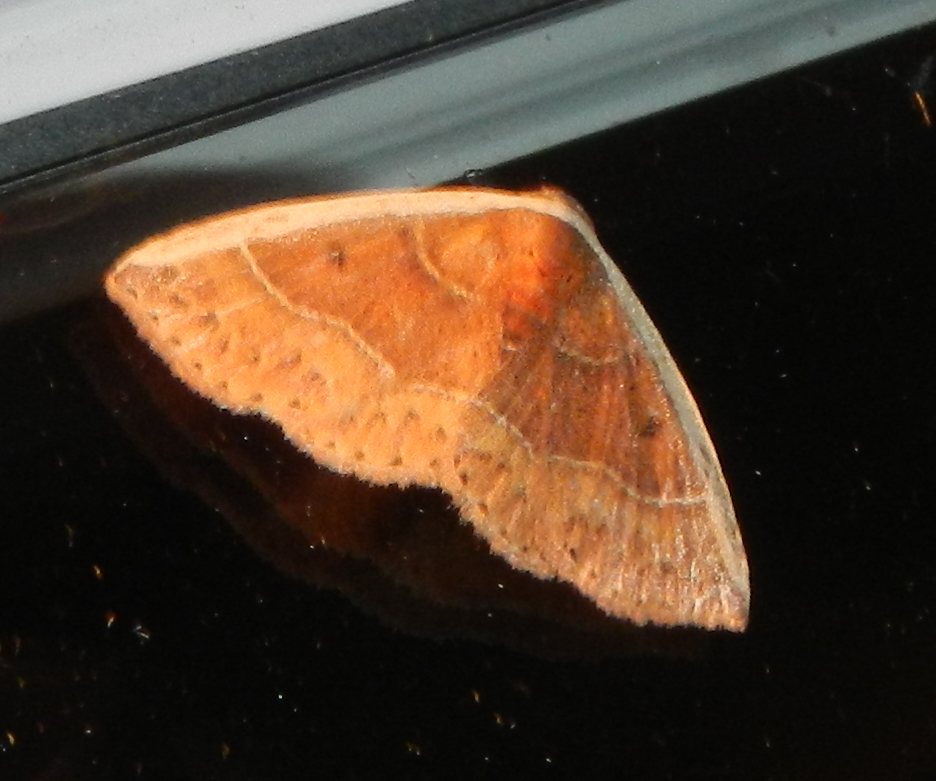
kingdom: Animalia
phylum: Arthropoda
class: Insecta
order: Lepidoptera
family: Noctuidae
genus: Ozarba
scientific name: Ozarba albocostaliata
